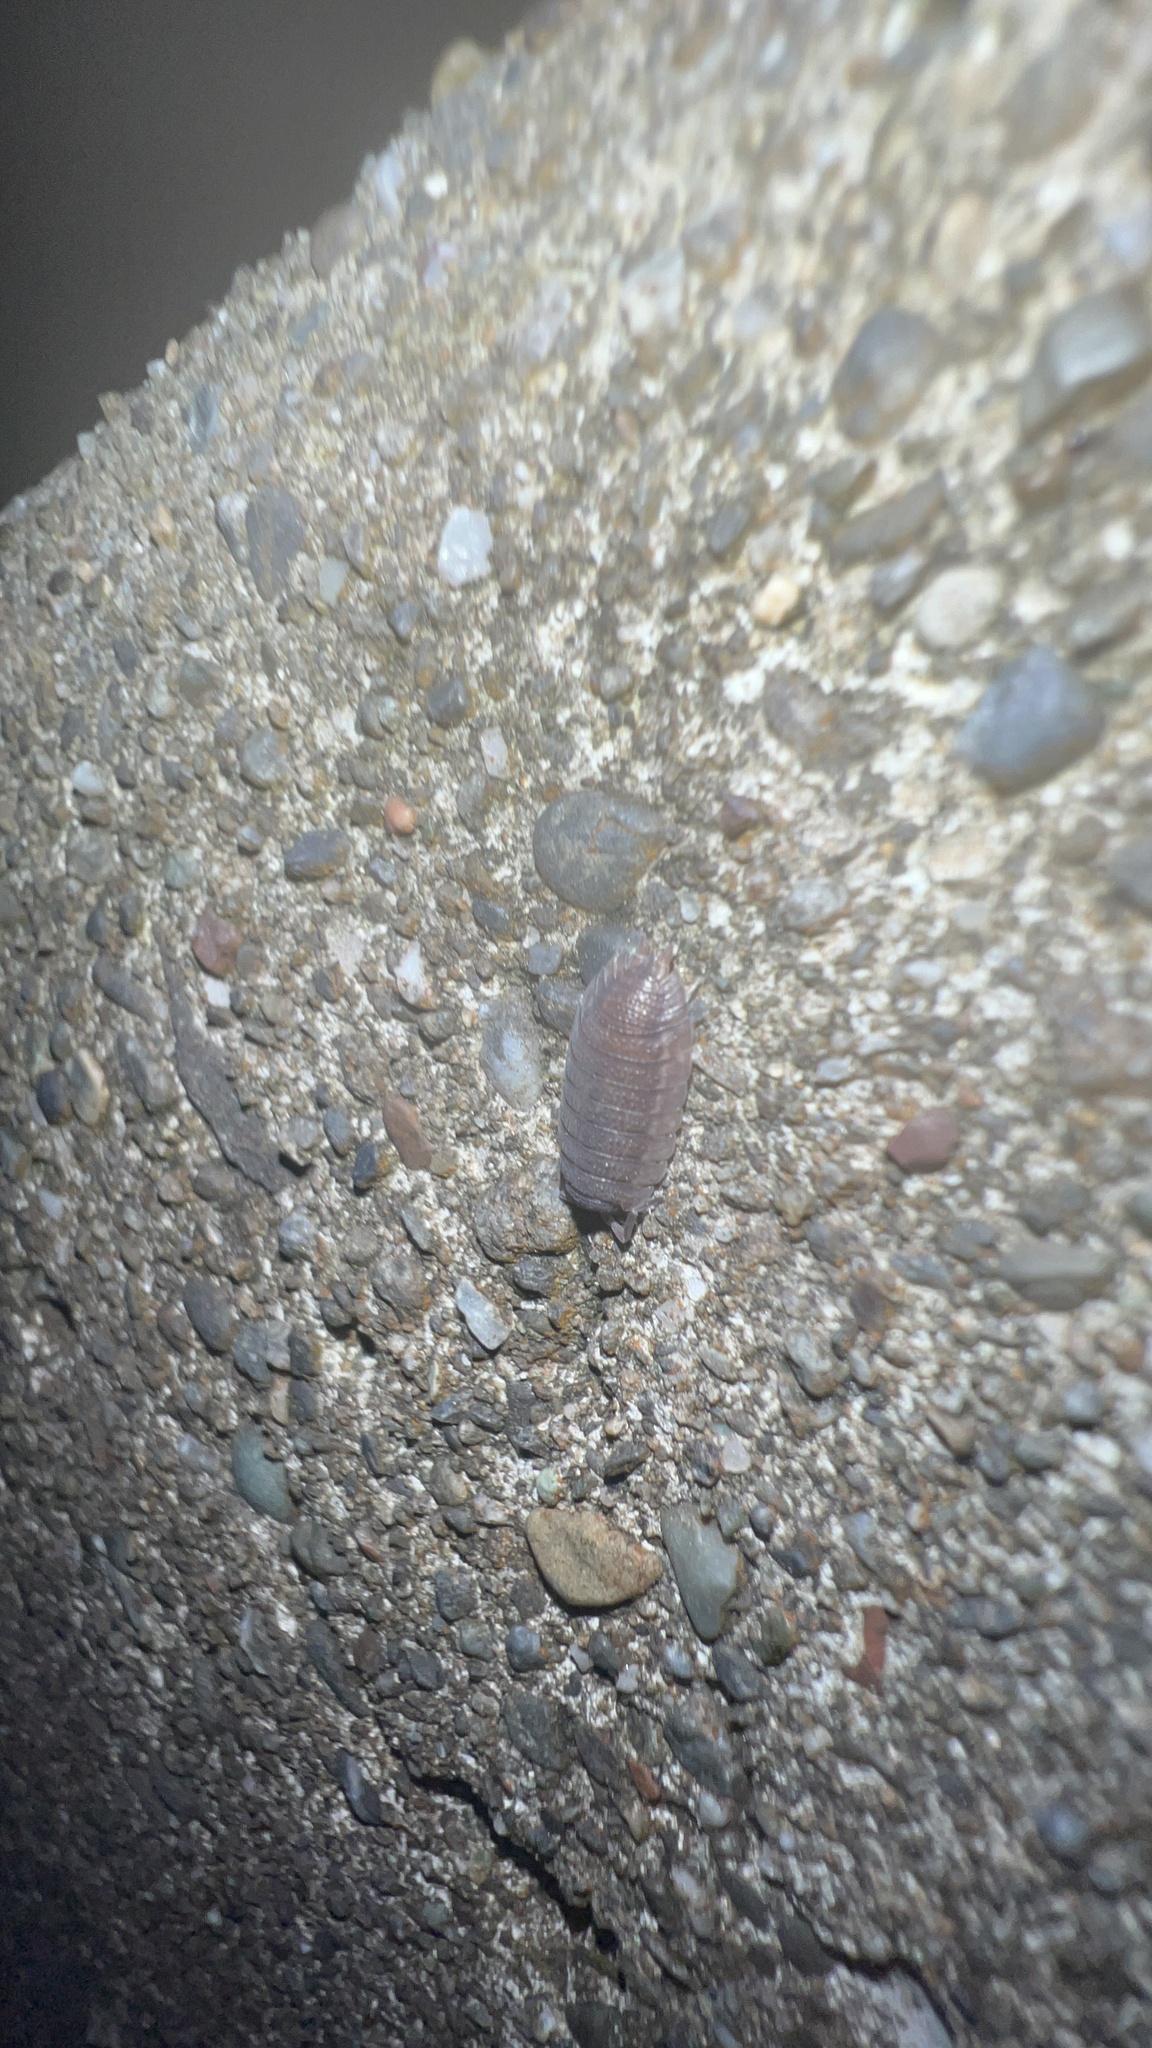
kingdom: Animalia
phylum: Arthropoda
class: Malacostraca
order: Isopoda
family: Porcellionidae
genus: Porcellio
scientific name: Porcellio scaber
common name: Common rough woodlouse
